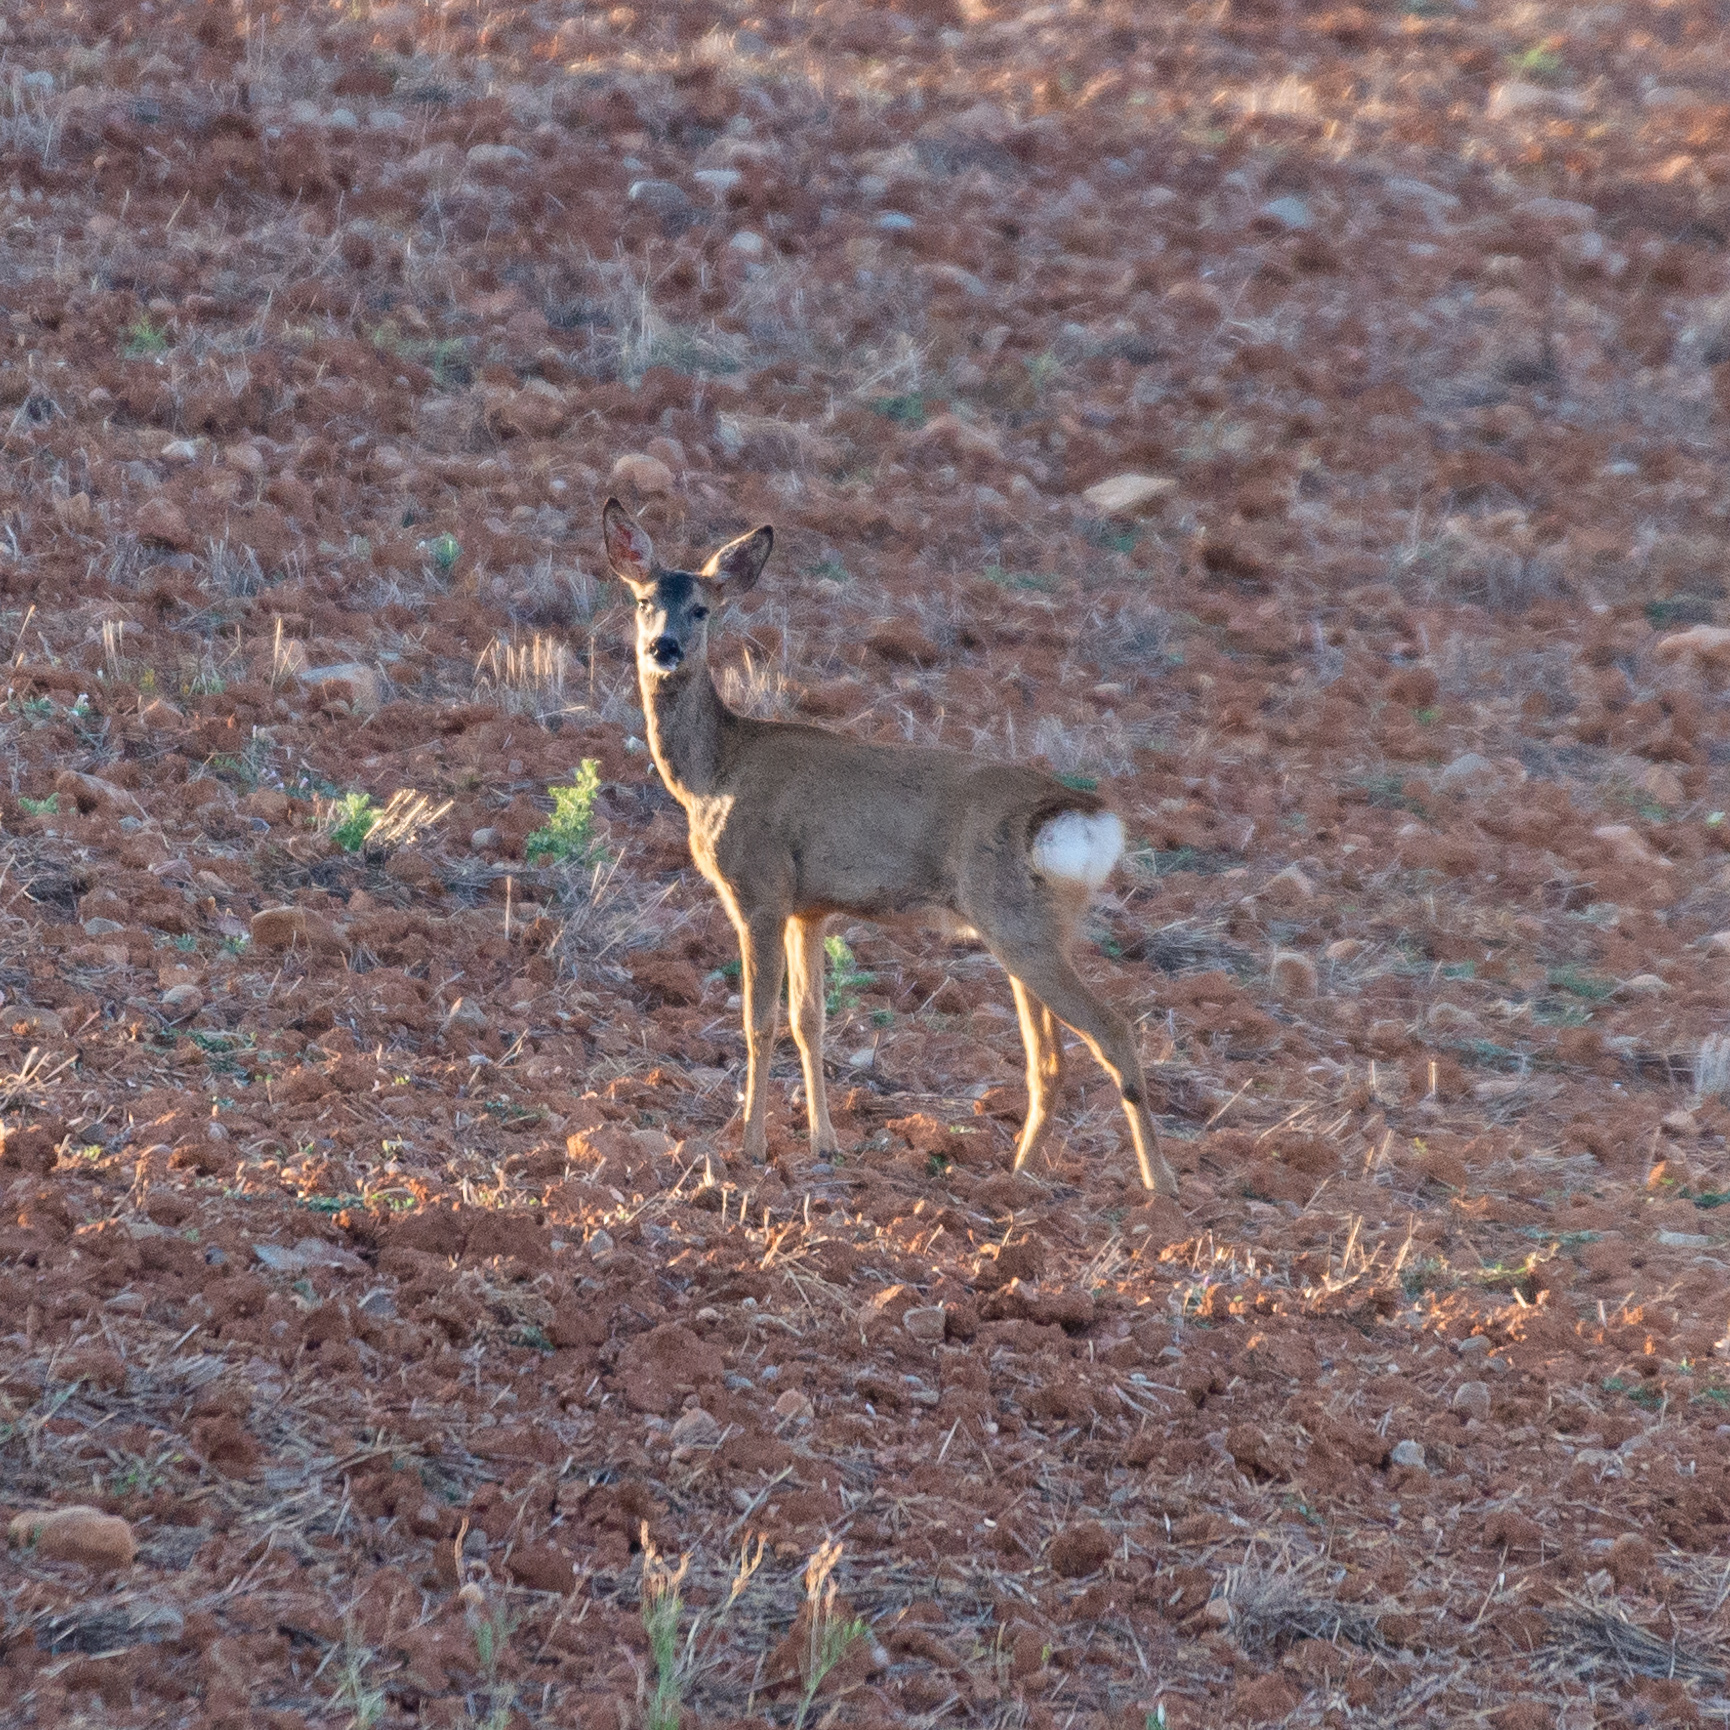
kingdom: Animalia
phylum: Chordata
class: Mammalia
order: Artiodactyla
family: Cervidae
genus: Capreolus
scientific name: Capreolus capreolus
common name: Western roe deer
